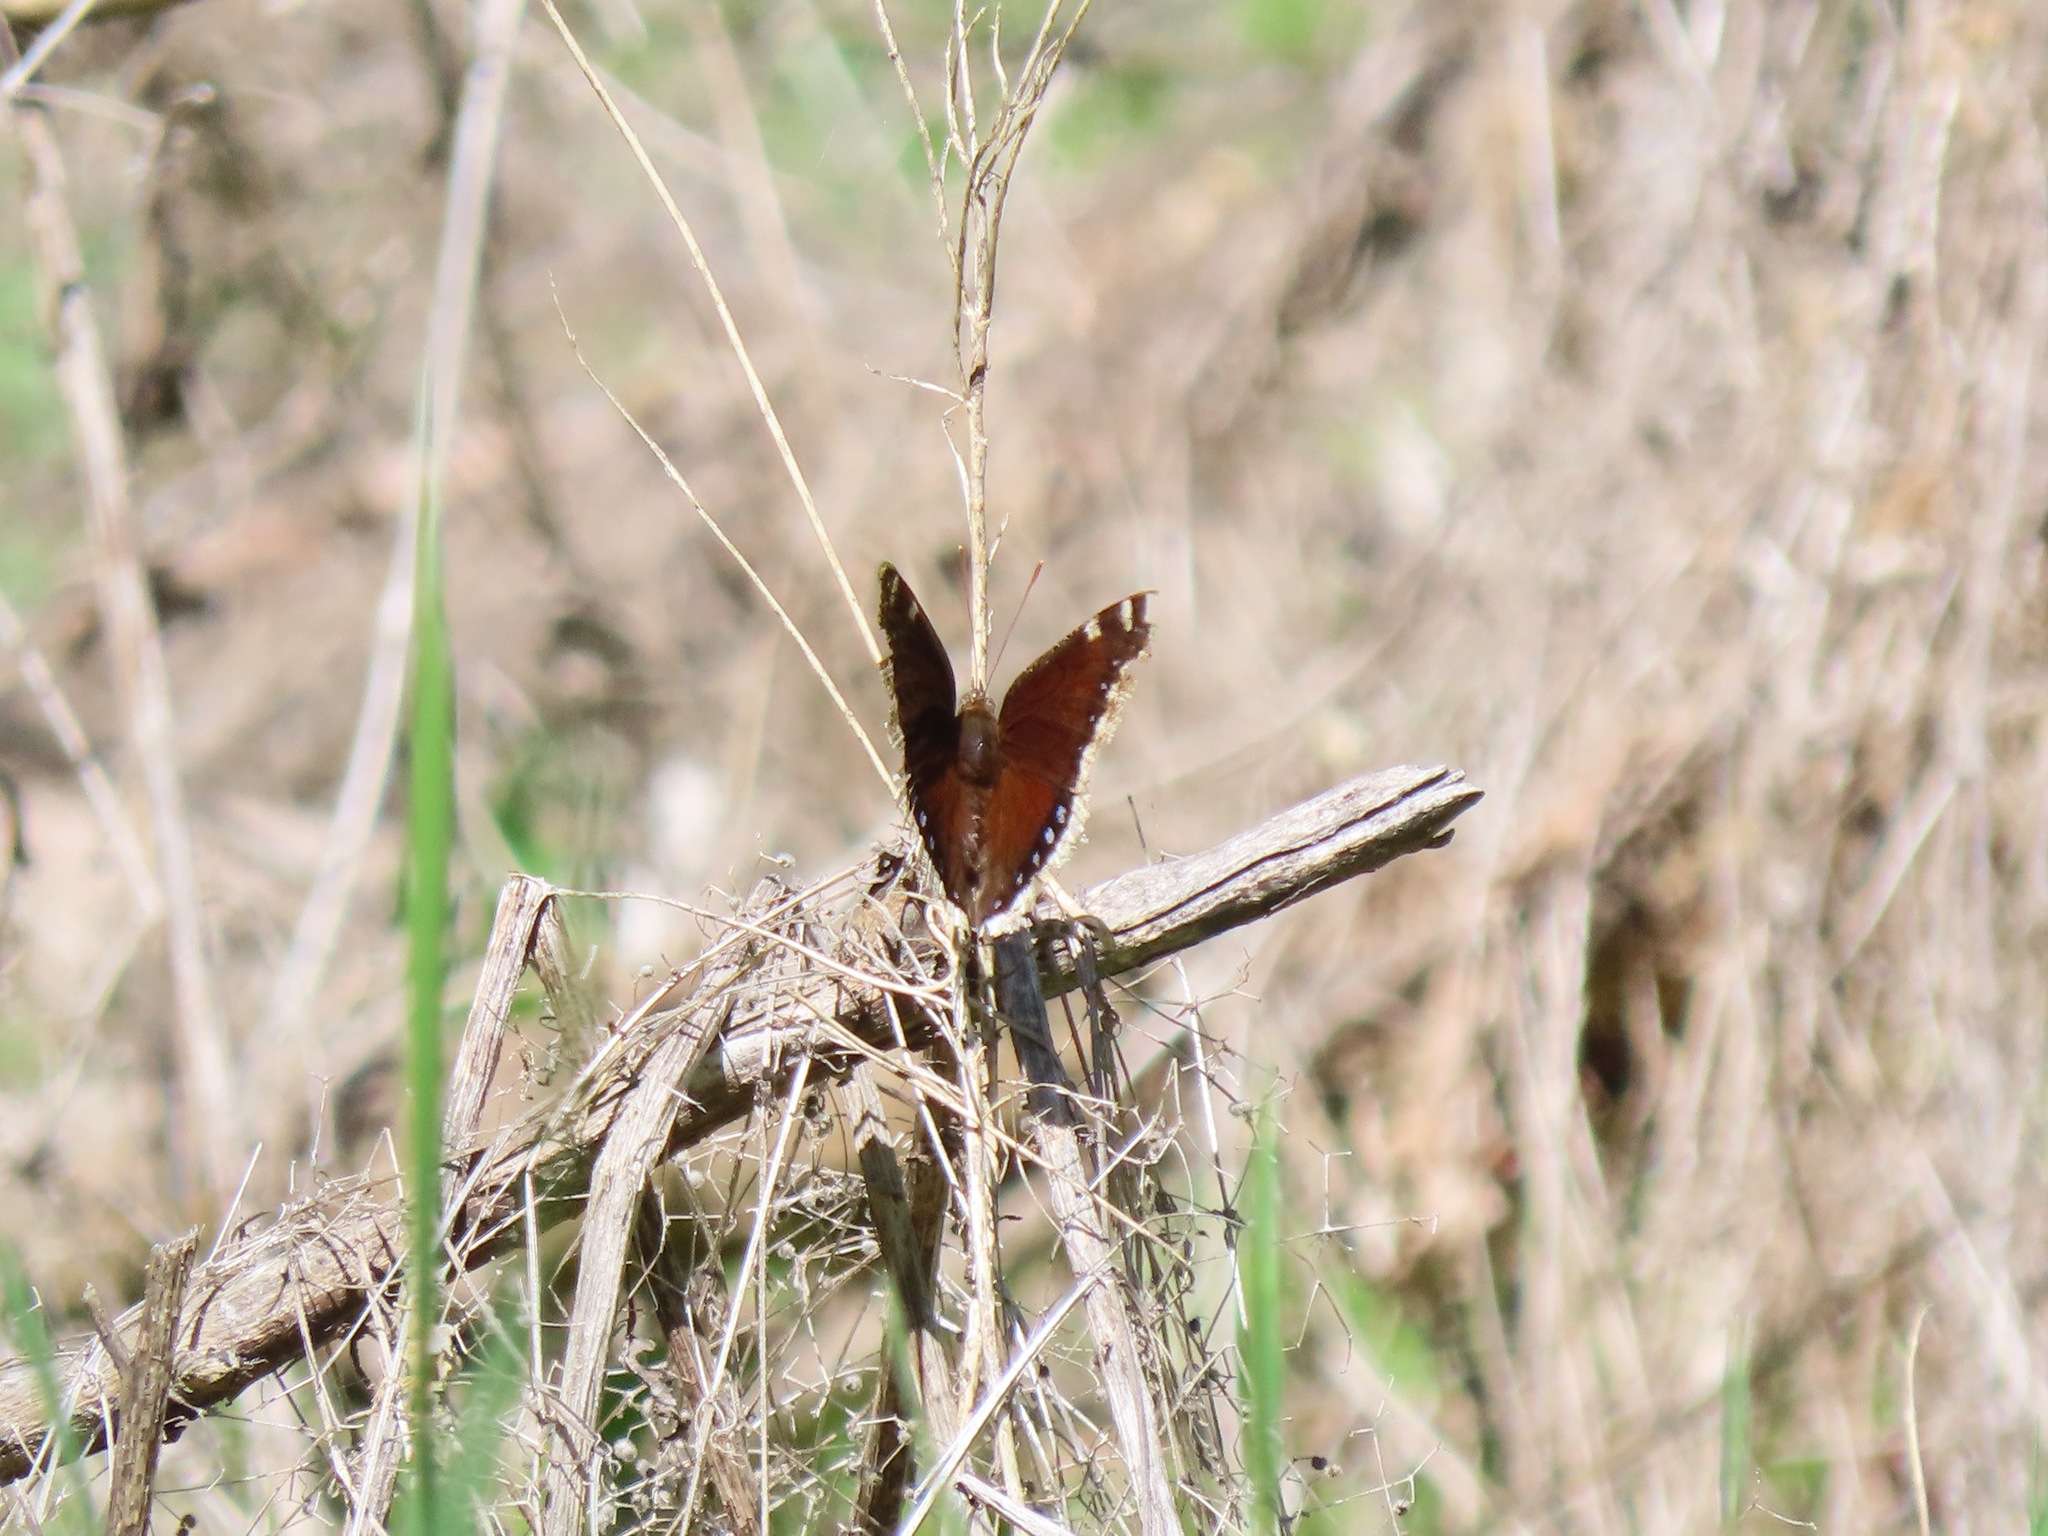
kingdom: Animalia
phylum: Arthropoda
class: Insecta
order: Lepidoptera
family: Nymphalidae
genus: Nymphalis
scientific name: Nymphalis antiopa
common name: Camberwell beauty
